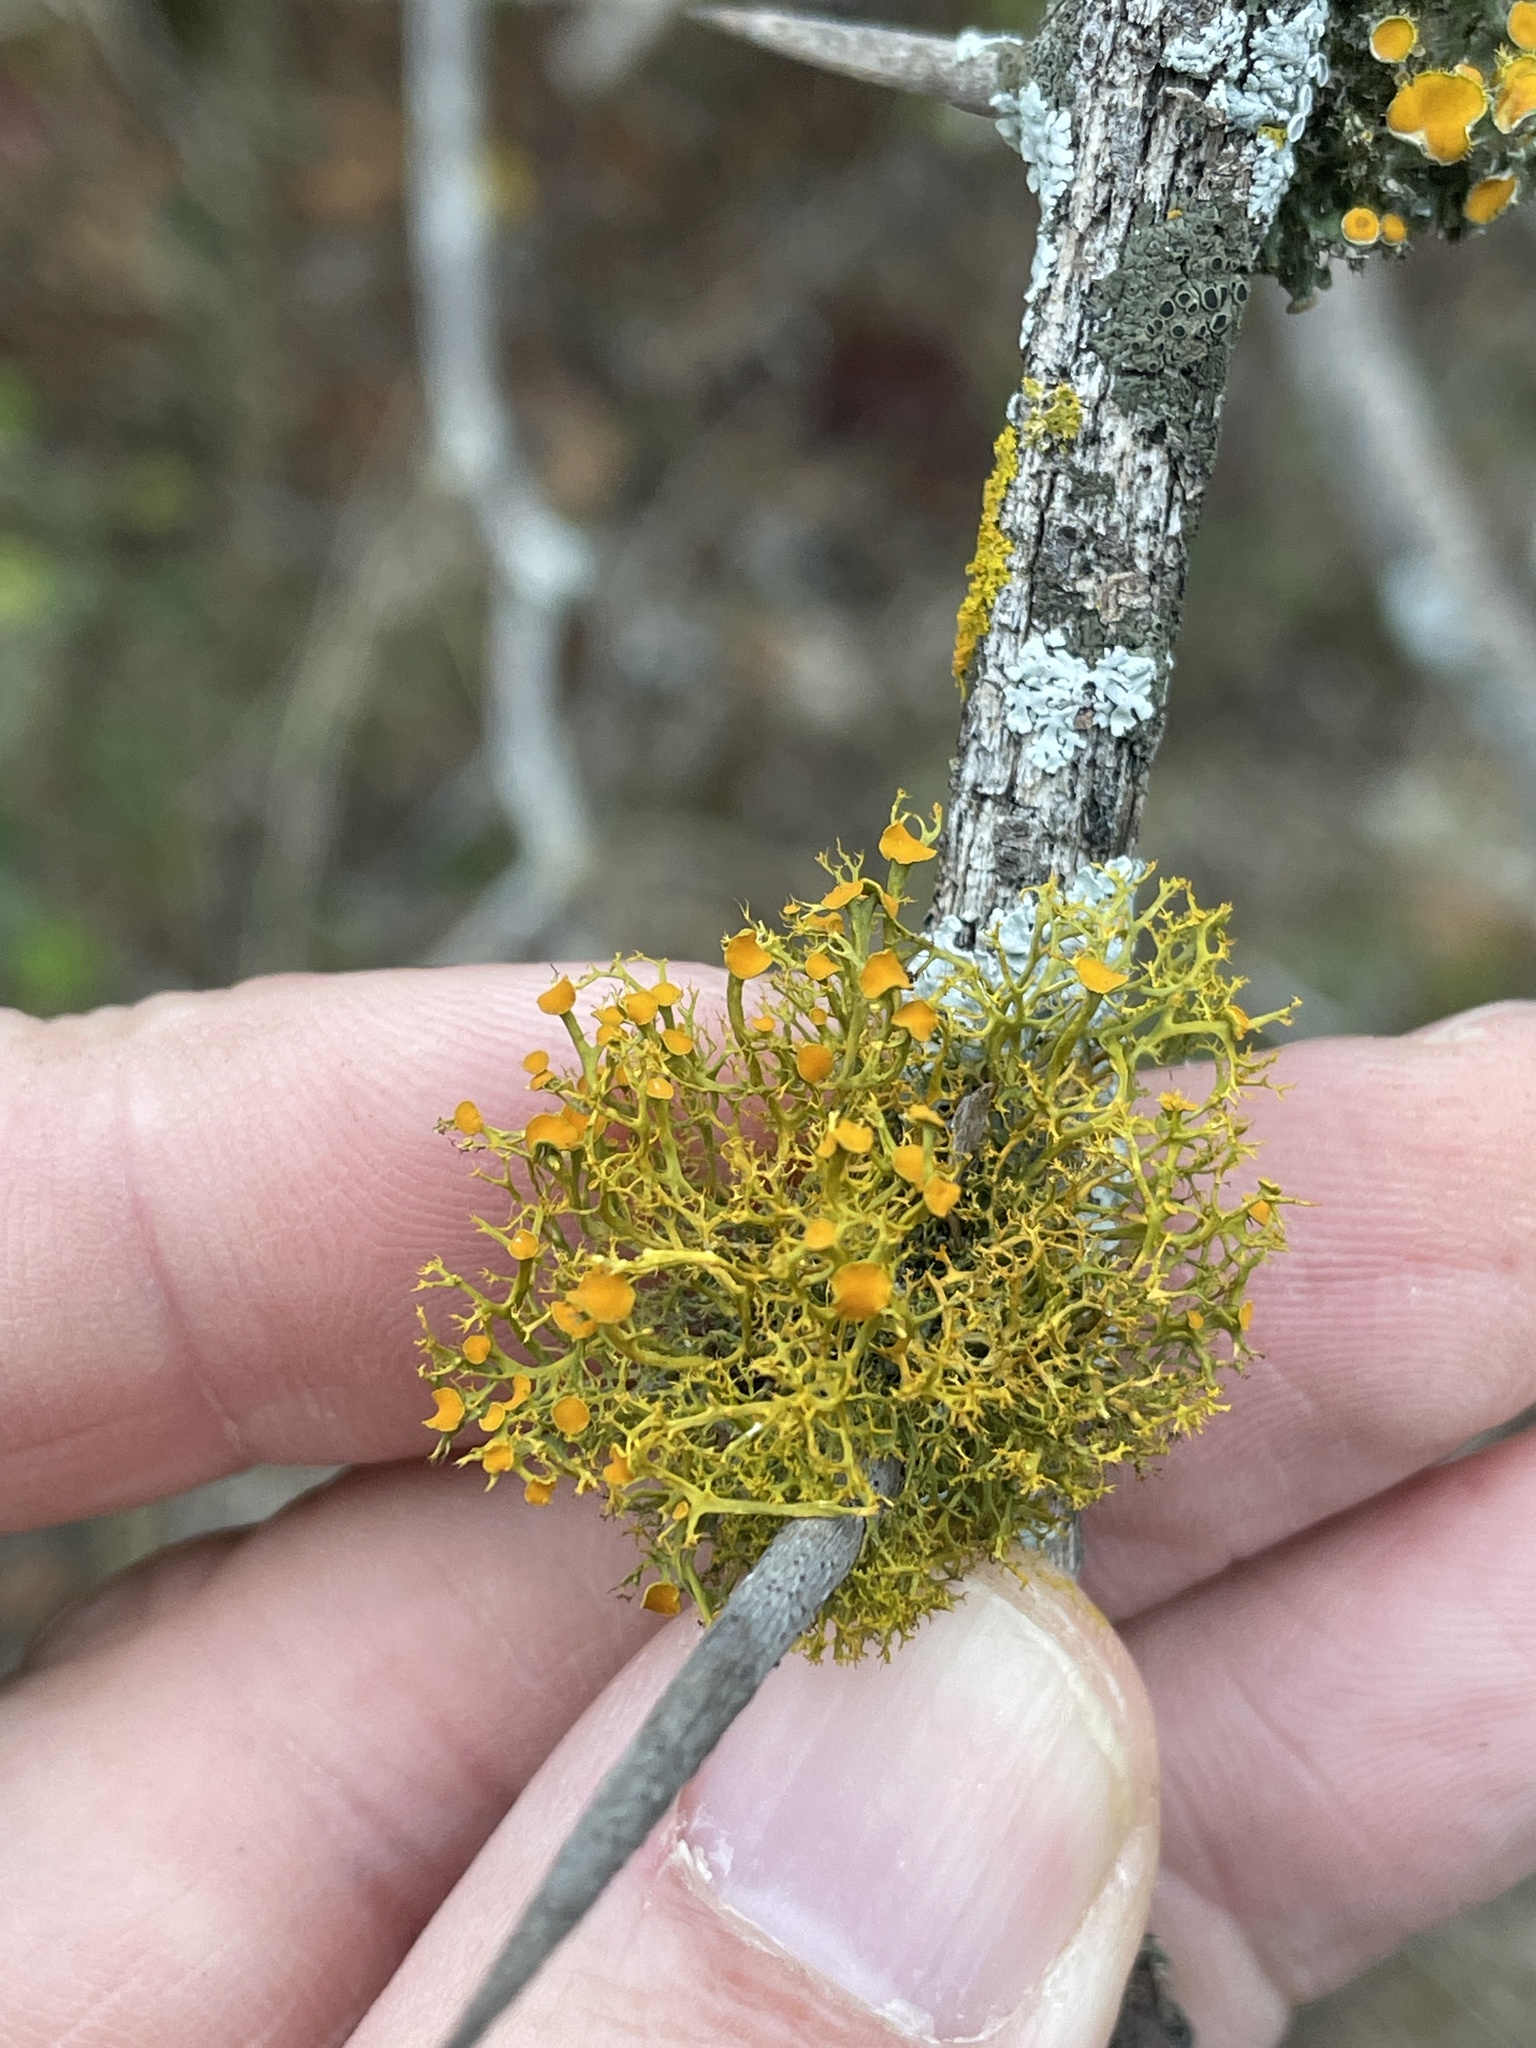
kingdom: Fungi
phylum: Ascomycota
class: Lecanoromycetes
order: Teloschistales
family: Teloschistaceae
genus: Teloschistes
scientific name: Teloschistes exilis
